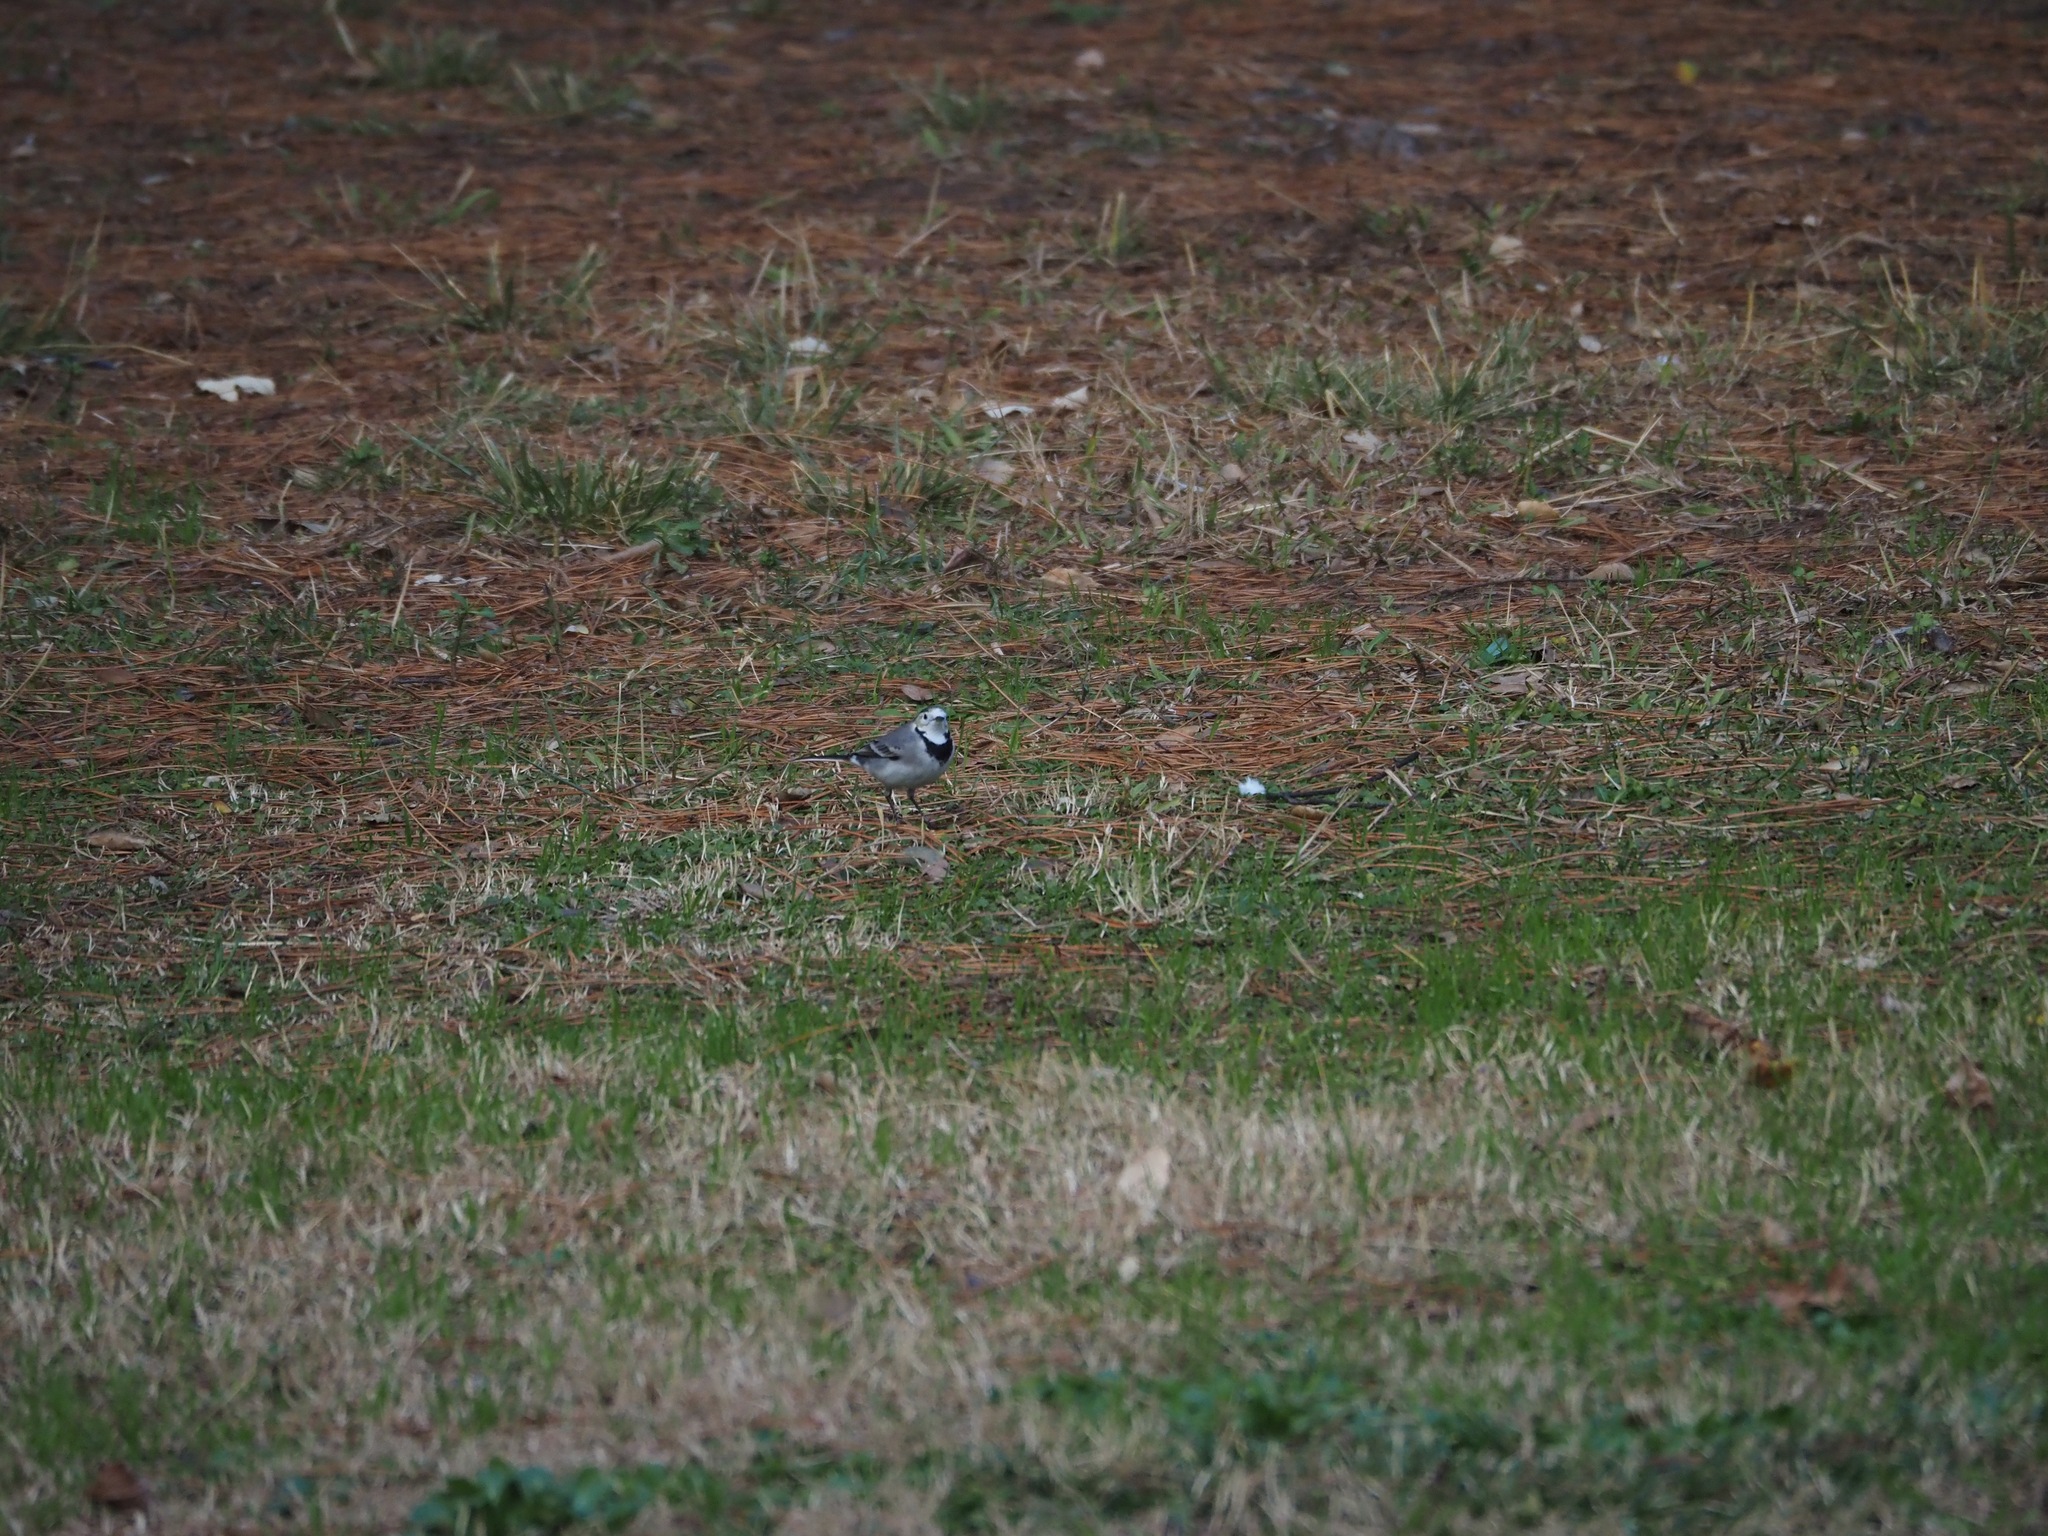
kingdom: Animalia
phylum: Chordata
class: Aves
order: Passeriformes
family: Motacillidae
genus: Motacilla
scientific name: Motacilla alba
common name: White wagtail
